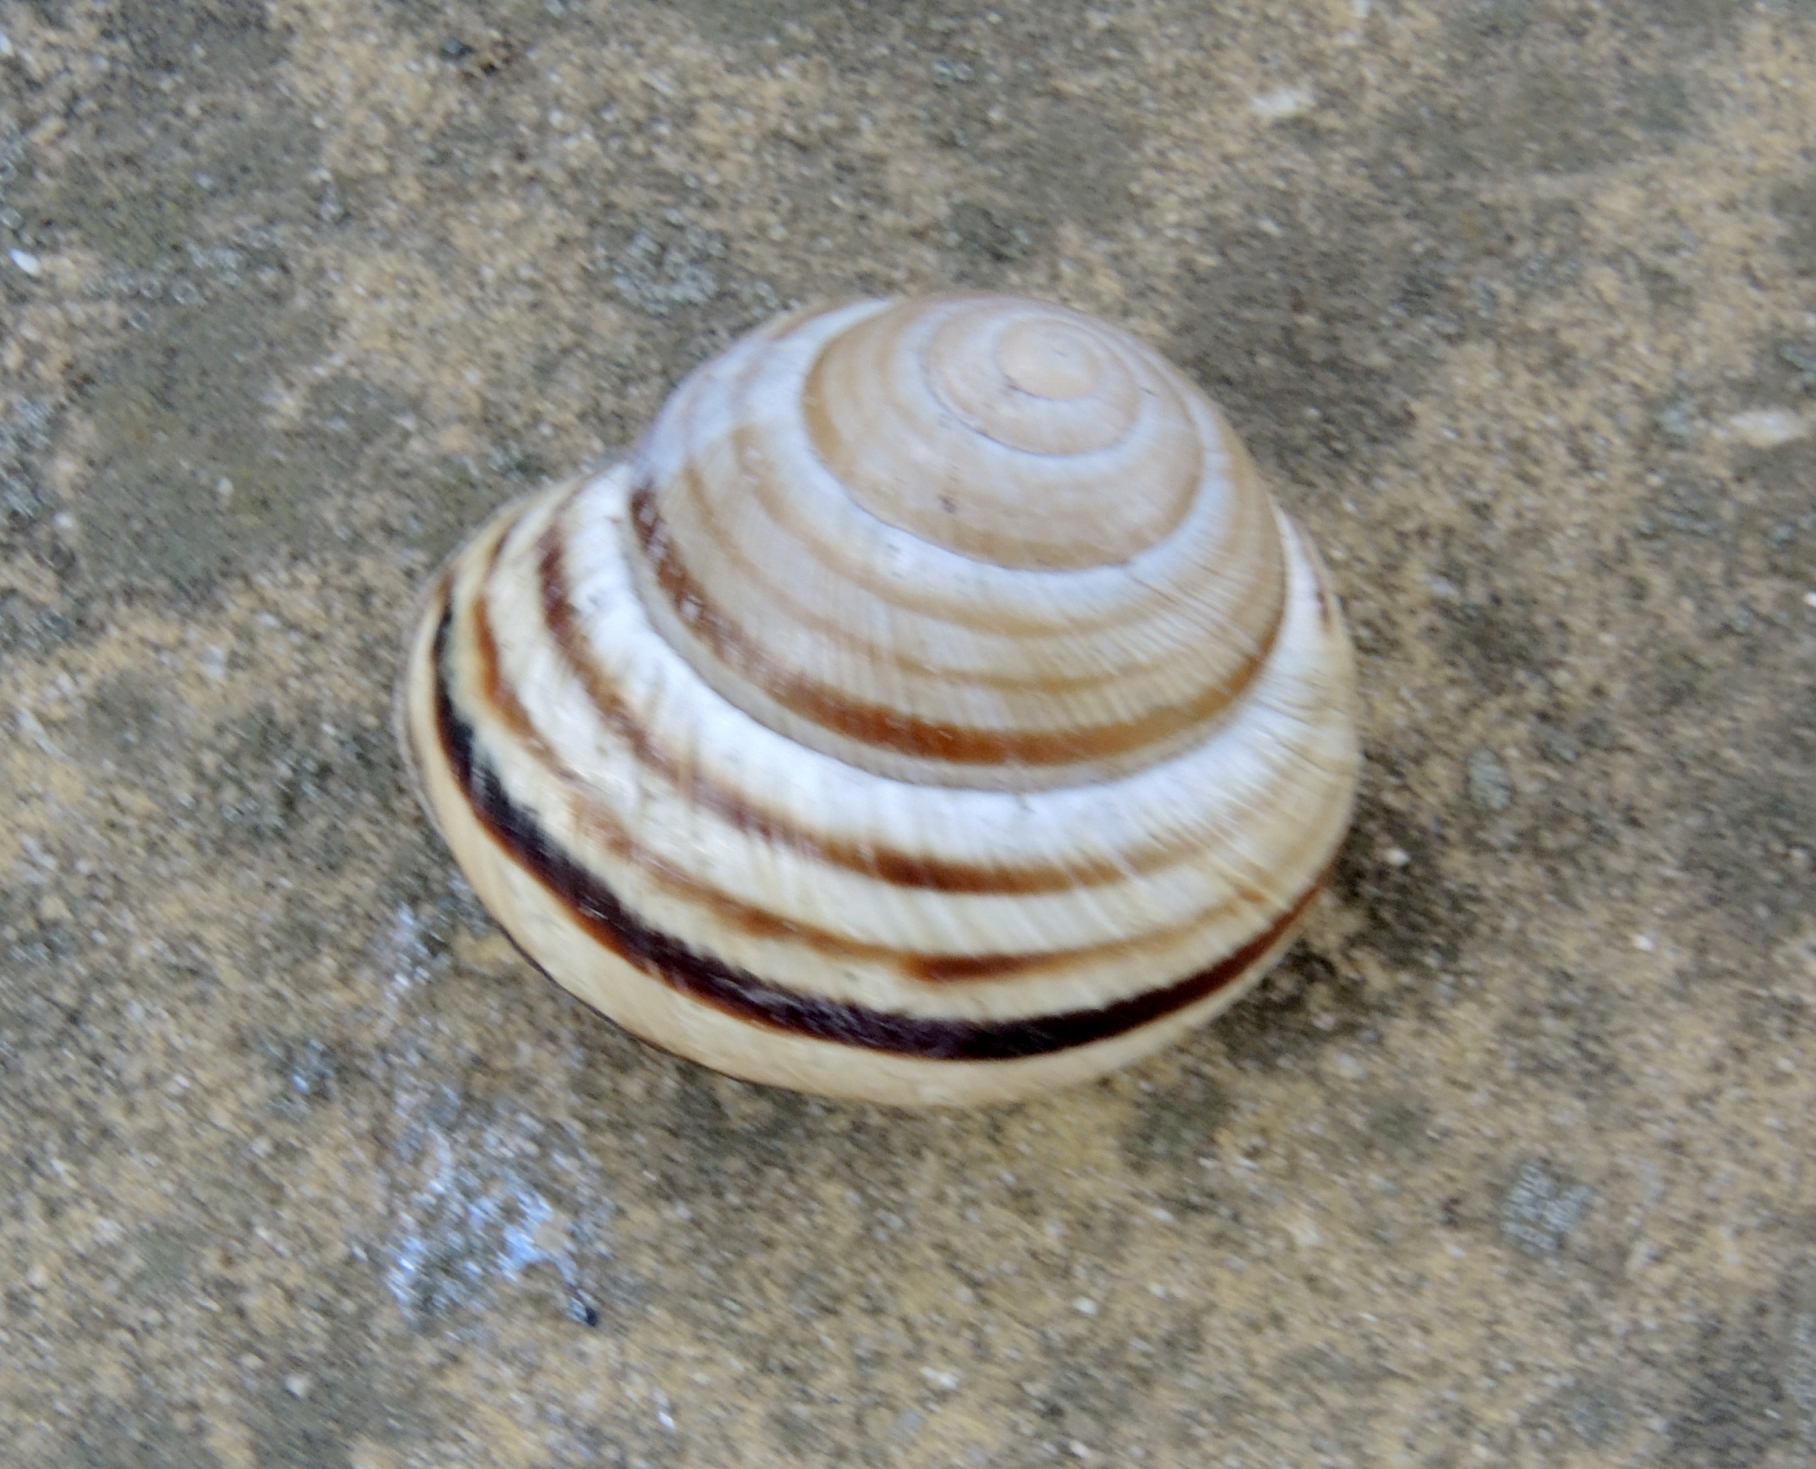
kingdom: Animalia
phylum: Mollusca
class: Gastropoda
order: Stylommatophora
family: Helicidae
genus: Caucasotachea
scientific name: Caucasotachea vindobonensis
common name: European helicid land snail
